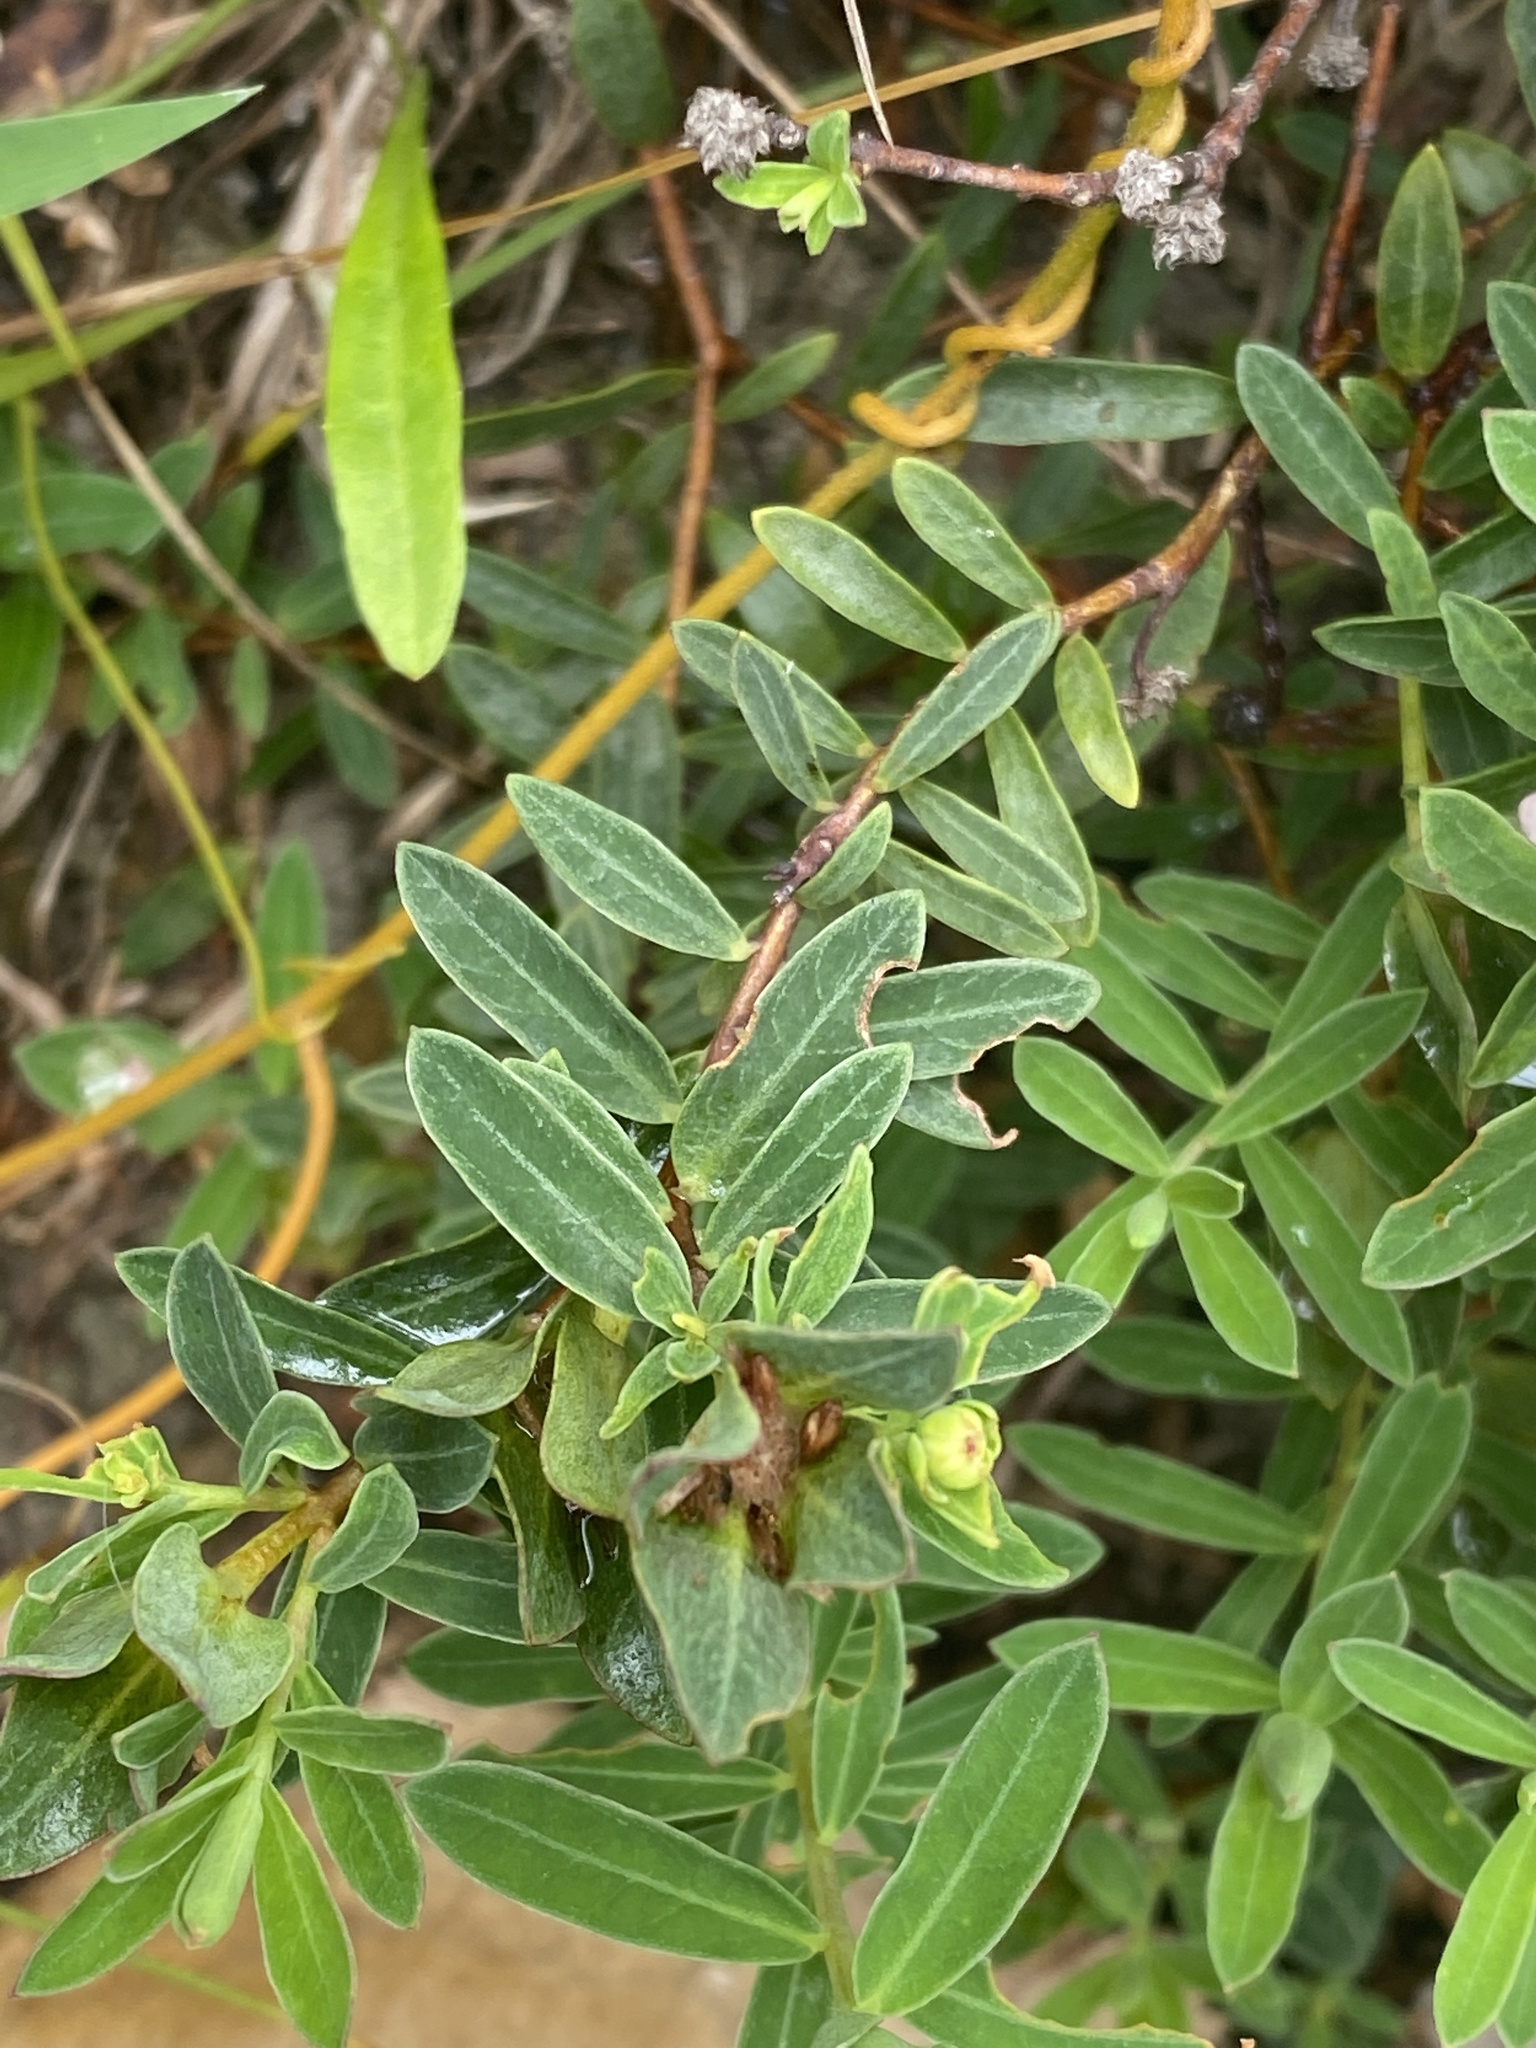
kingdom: Plantae
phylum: Tracheophyta
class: Magnoliopsida
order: Malvales
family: Thymelaeaceae
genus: Pimelea
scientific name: Pimelea linifolia
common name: Queen-of-the-bush
